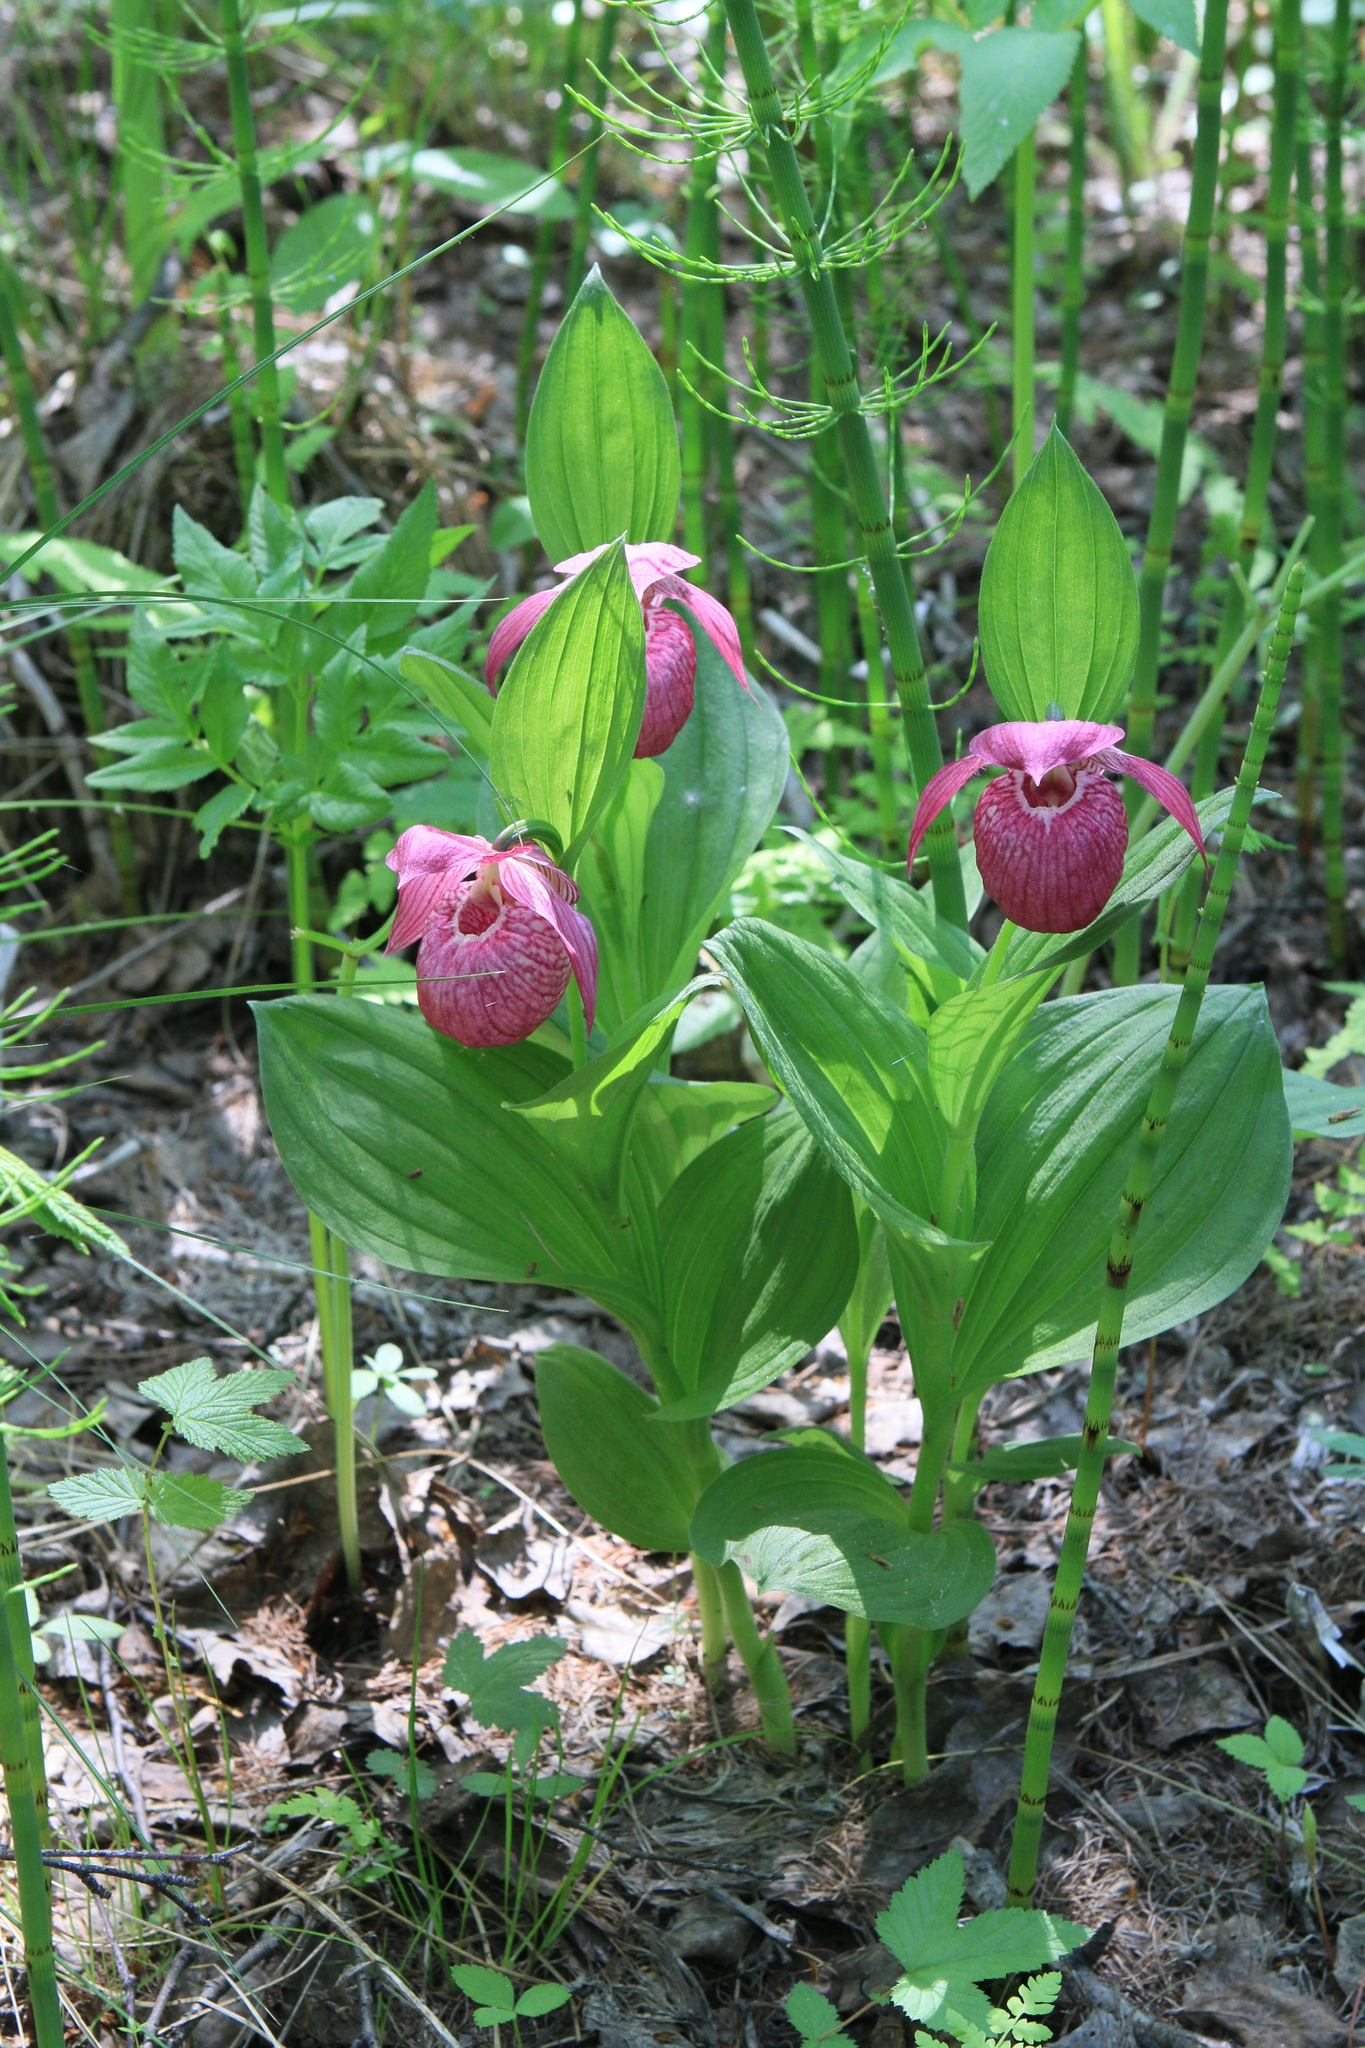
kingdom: Plantae
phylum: Tracheophyta
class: Liliopsida
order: Asparagales
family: Orchidaceae
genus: Cypripedium
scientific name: Cypripedium macranthos
